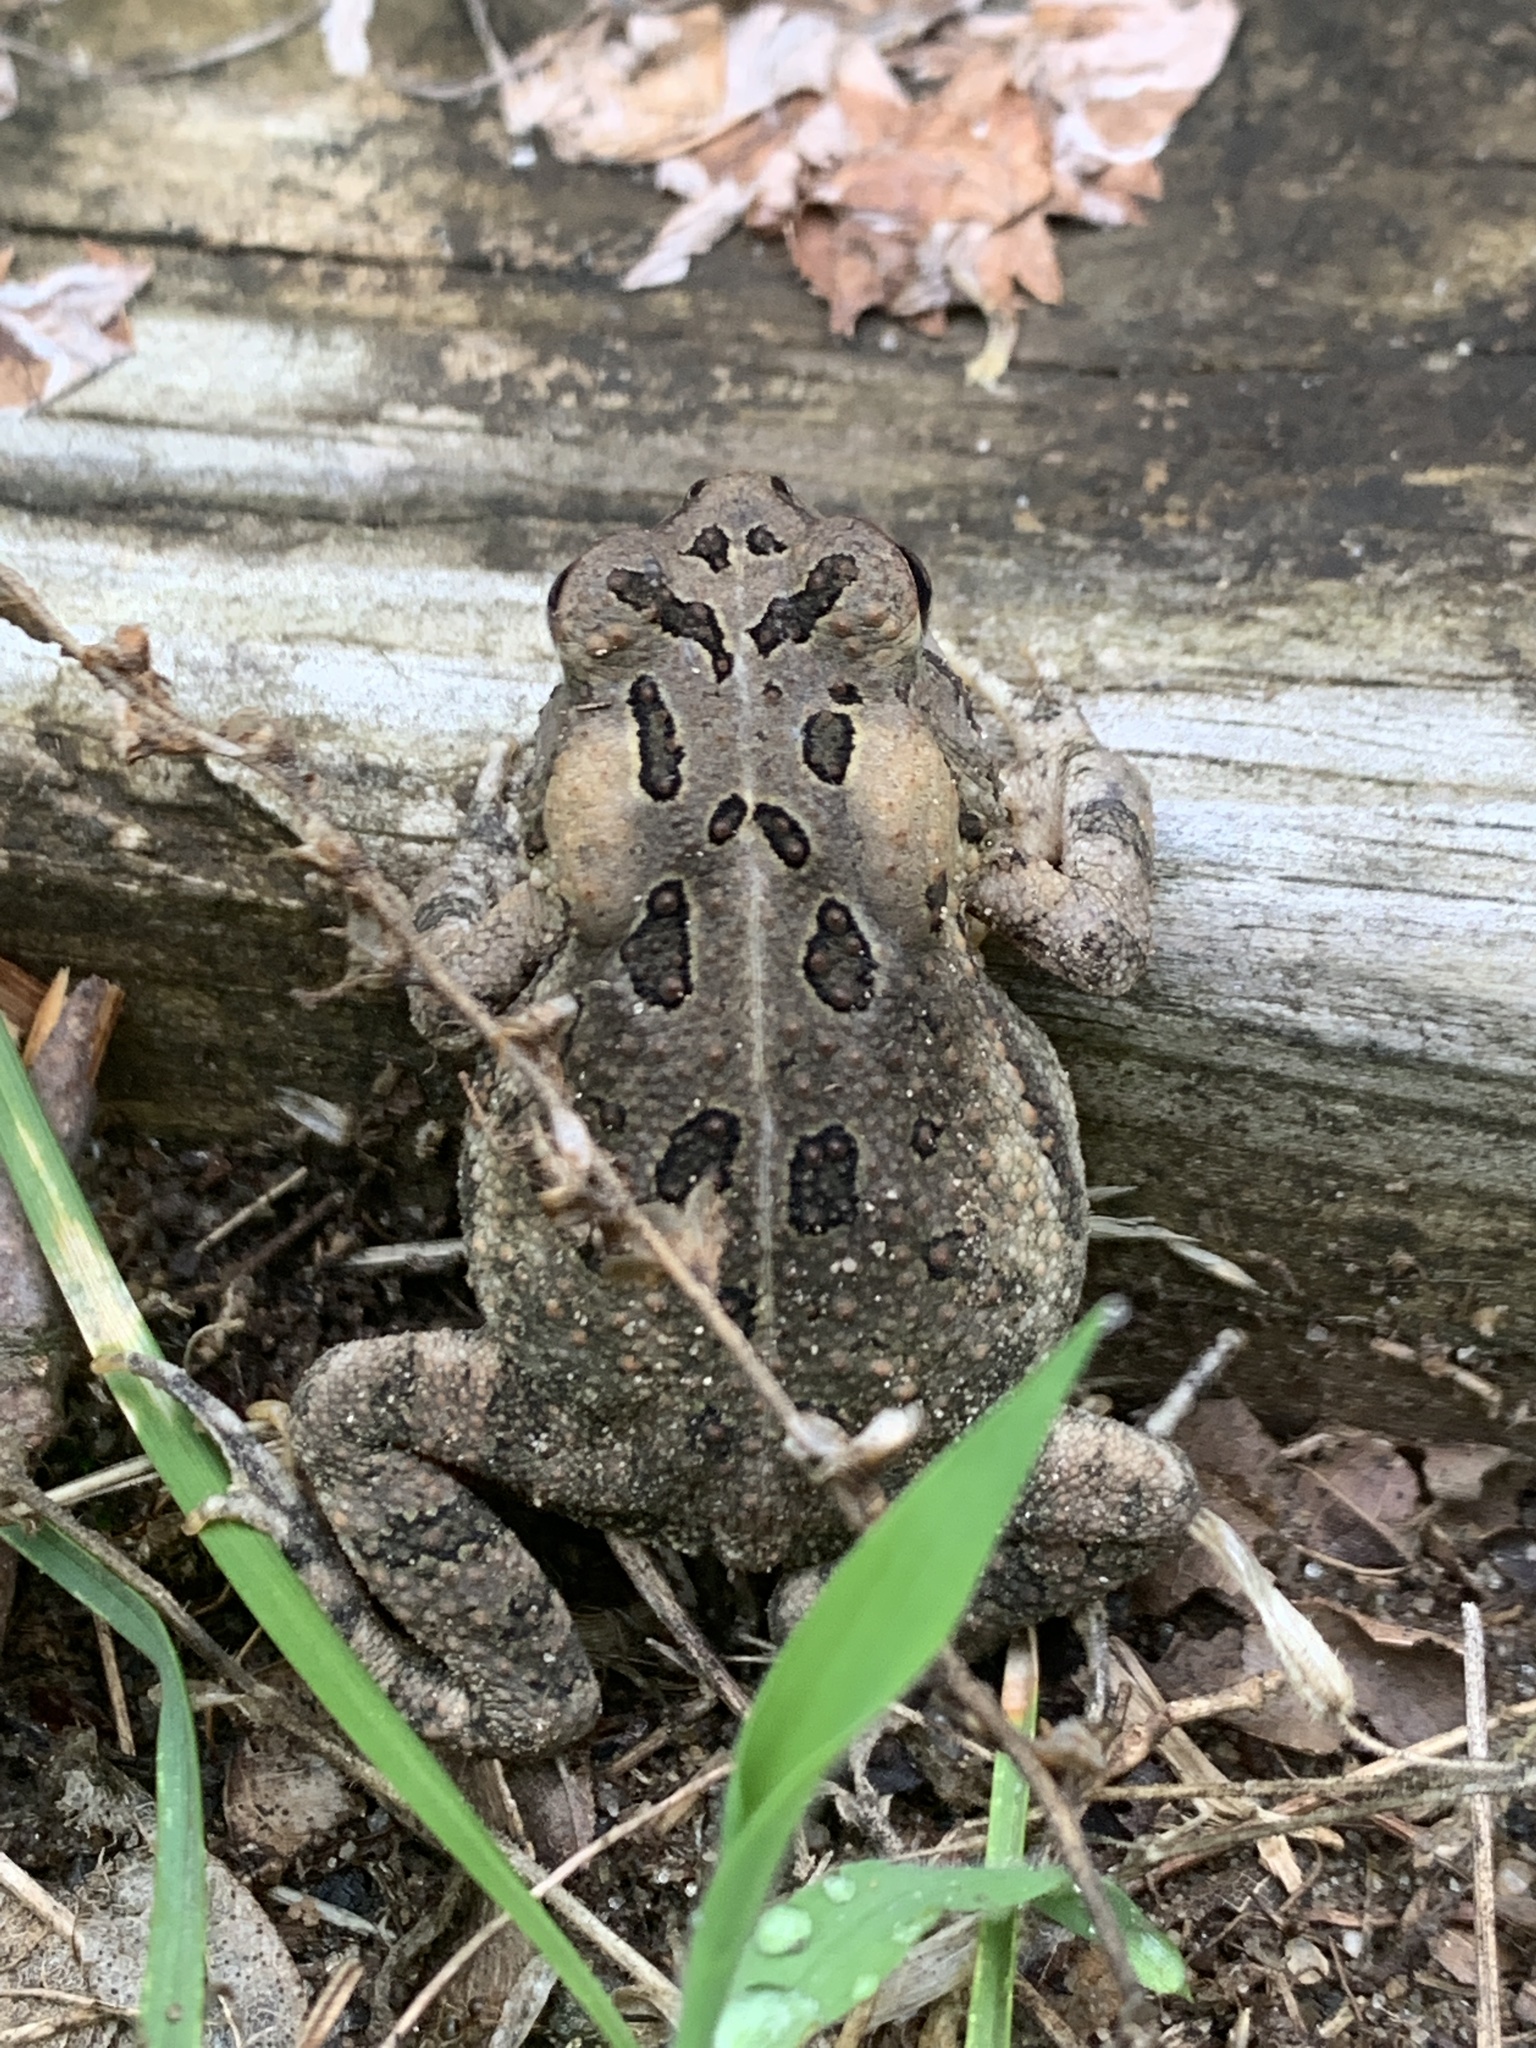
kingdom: Animalia
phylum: Chordata
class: Amphibia
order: Anura
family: Bufonidae
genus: Anaxyrus
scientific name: Anaxyrus fowleri
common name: Fowler's toad
